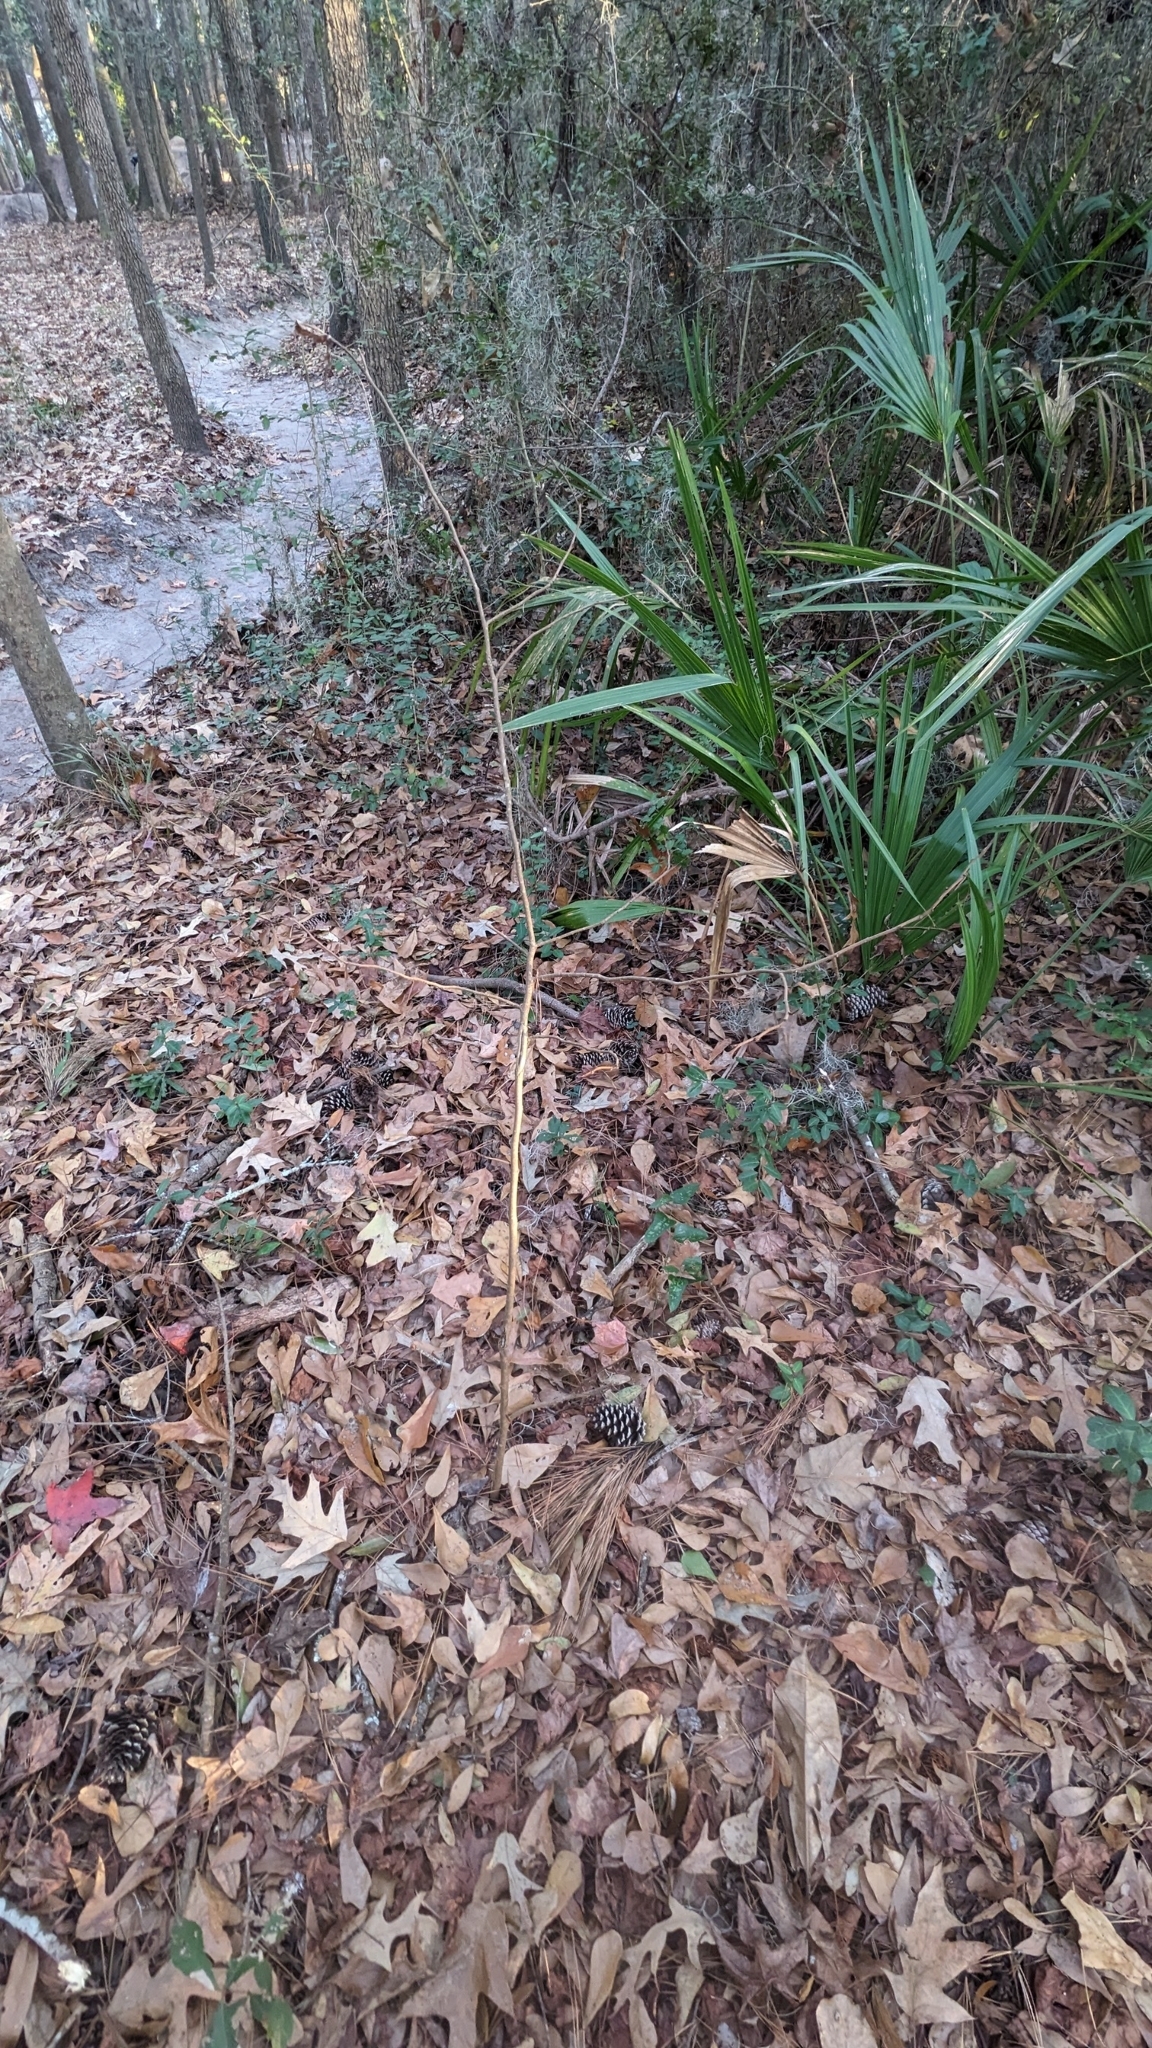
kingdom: Plantae
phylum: Tracheophyta
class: Magnoliopsida
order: Magnoliales
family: Annonaceae
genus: Asimina
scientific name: Asimina parviflora
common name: Dwarf pawpaw
